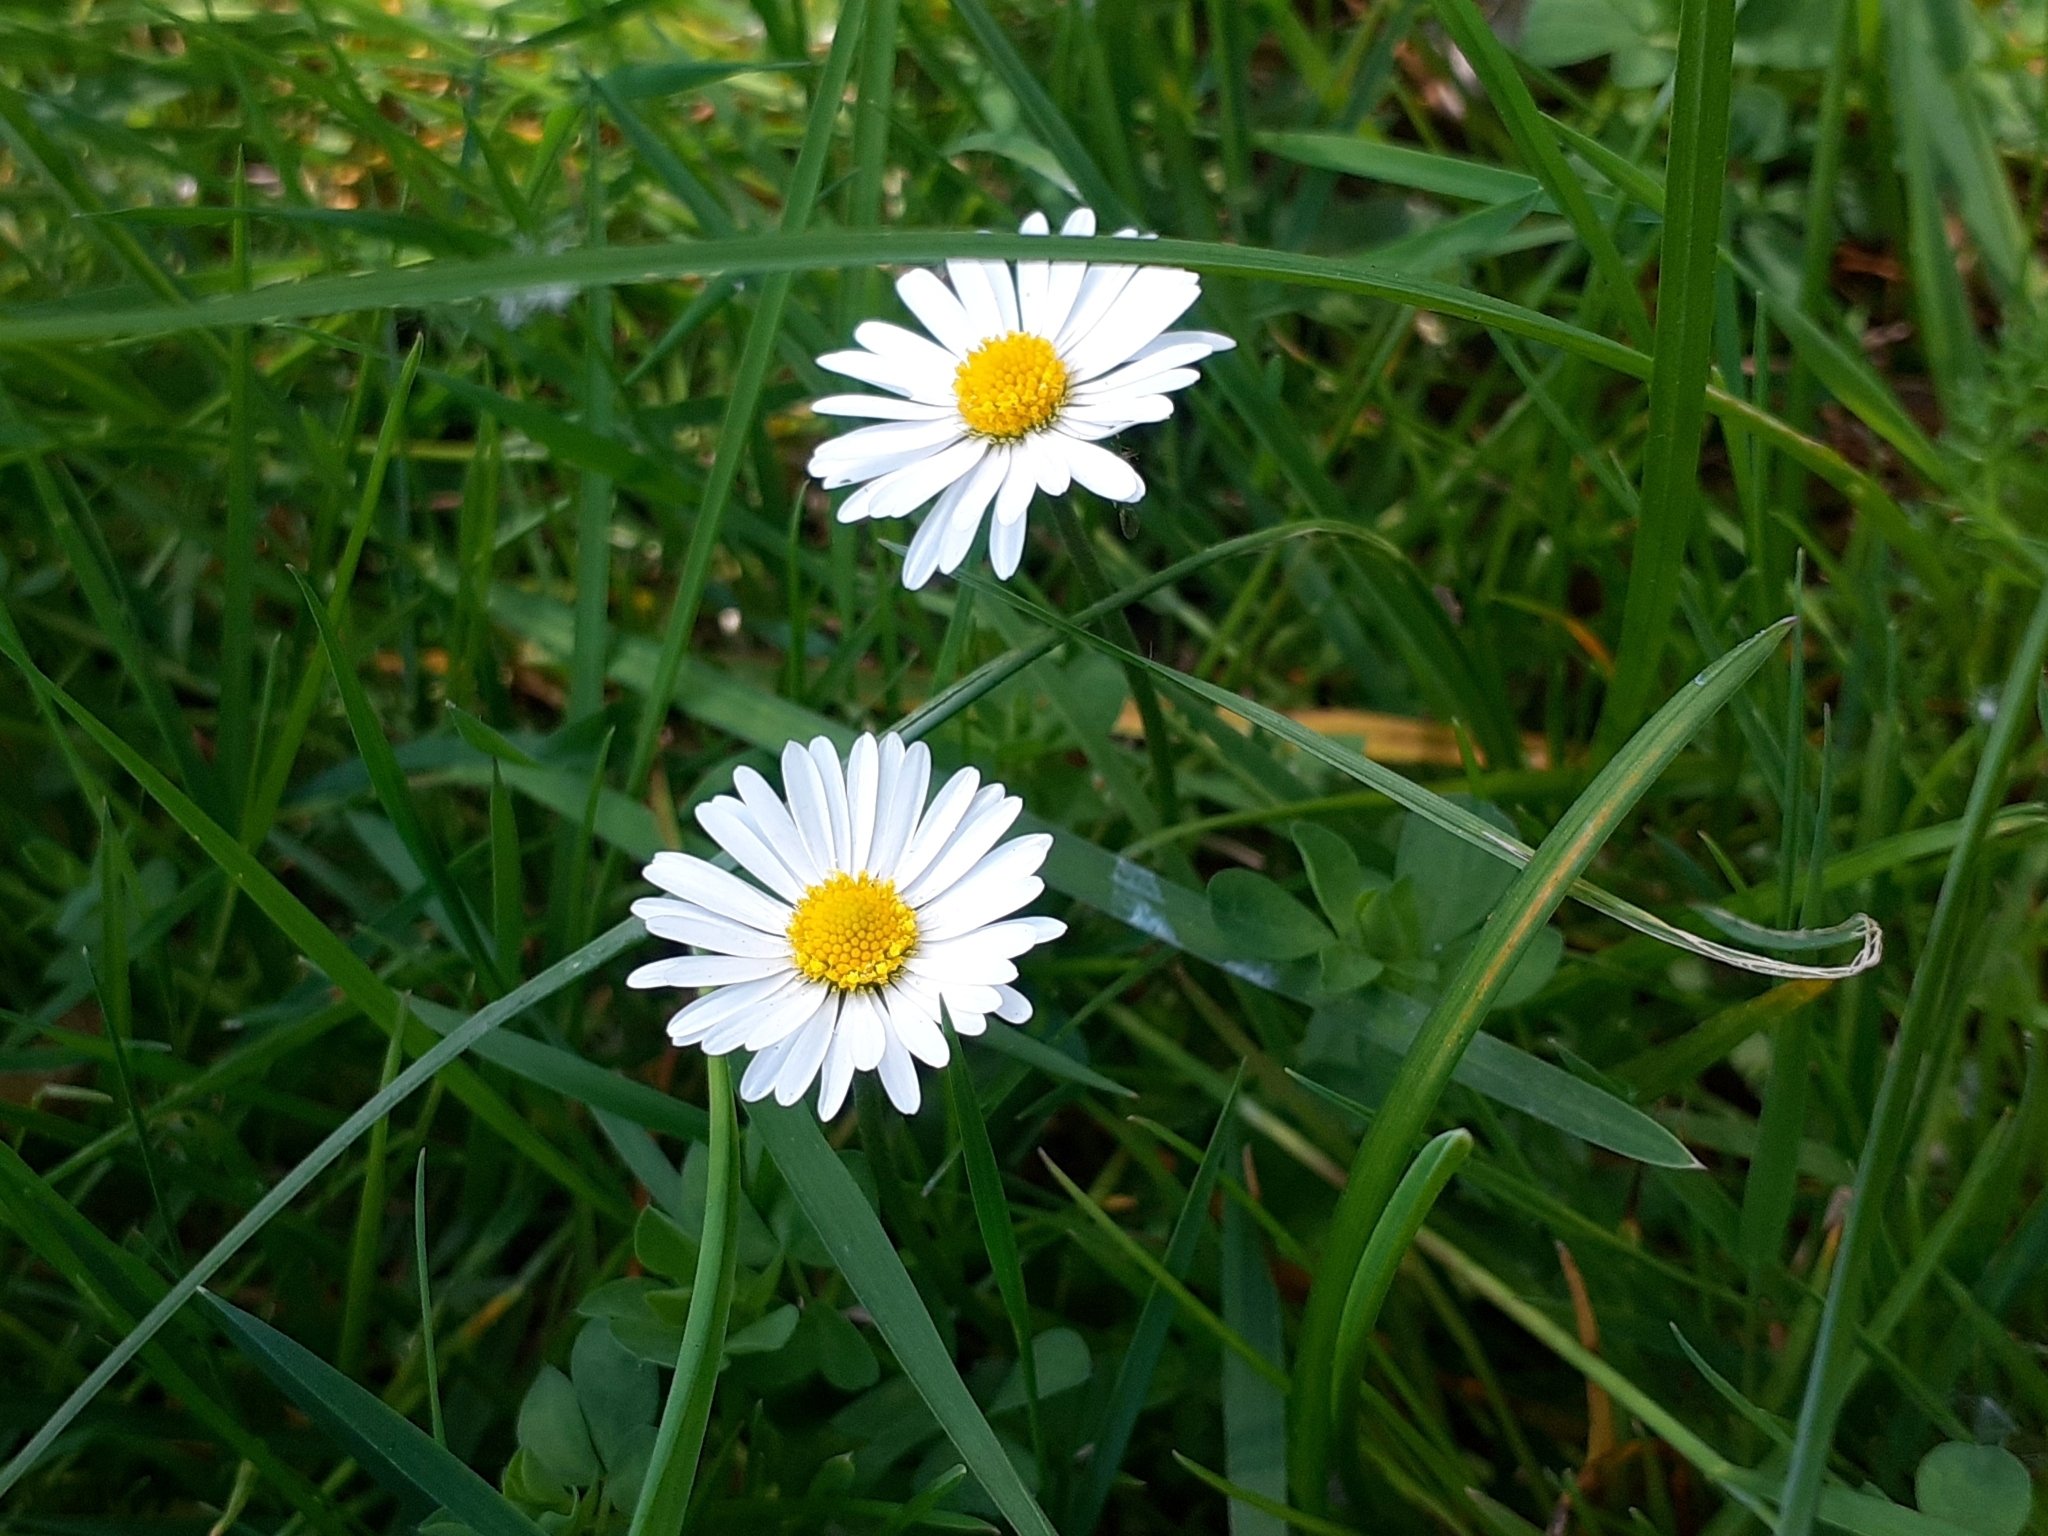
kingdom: Plantae
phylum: Tracheophyta
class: Magnoliopsida
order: Asterales
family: Asteraceae
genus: Bellis
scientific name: Bellis perennis
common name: Lawndaisy
